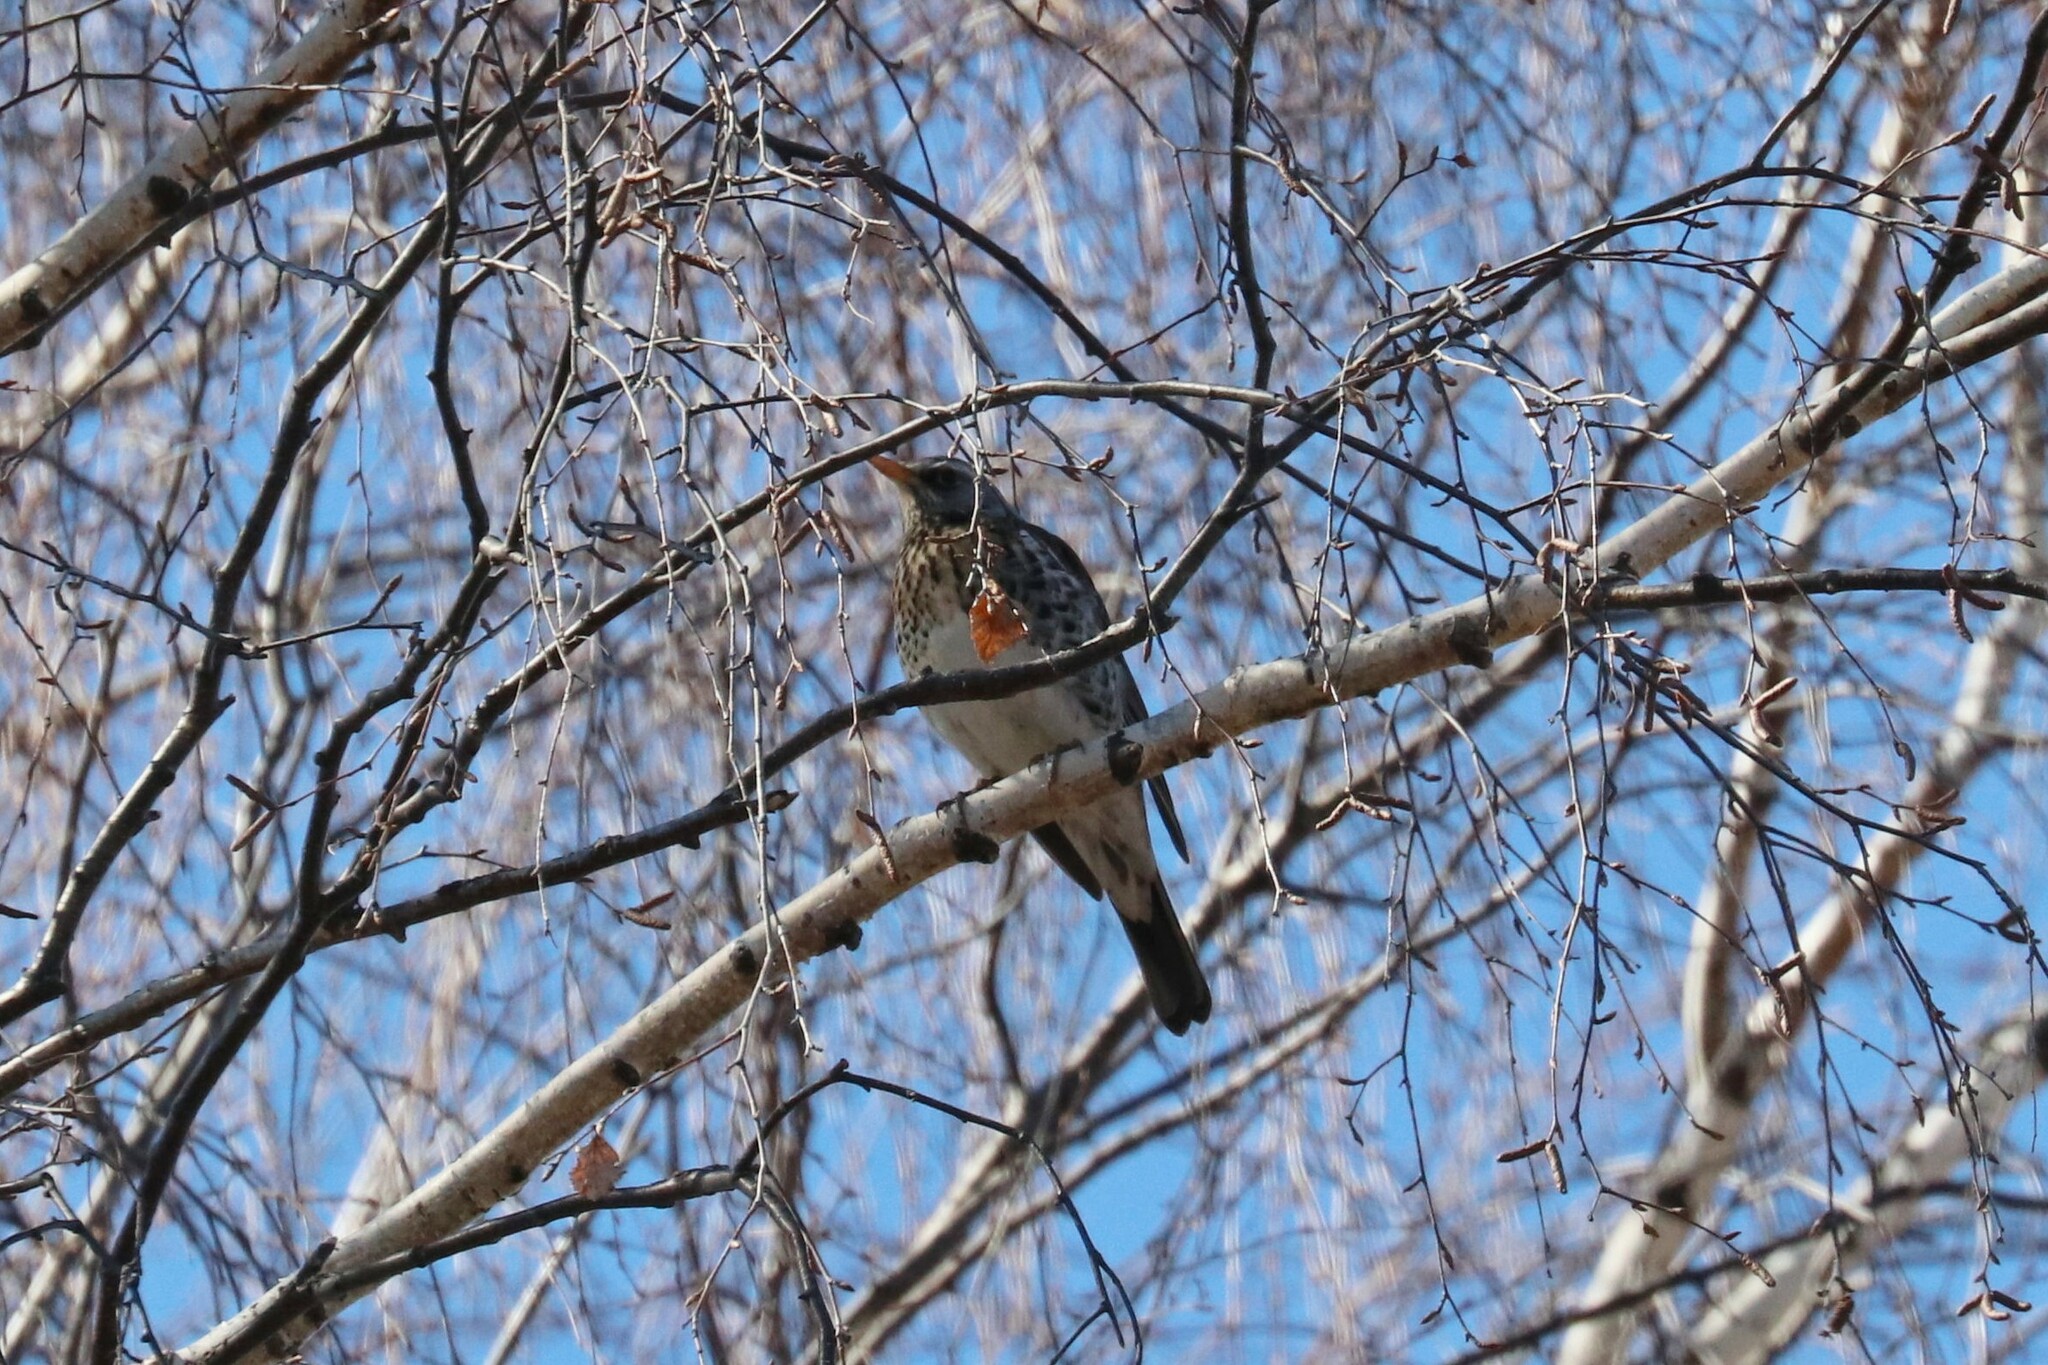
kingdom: Animalia
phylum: Chordata
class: Aves
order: Passeriformes
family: Turdidae
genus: Turdus
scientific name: Turdus pilaris
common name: Fieldfare
